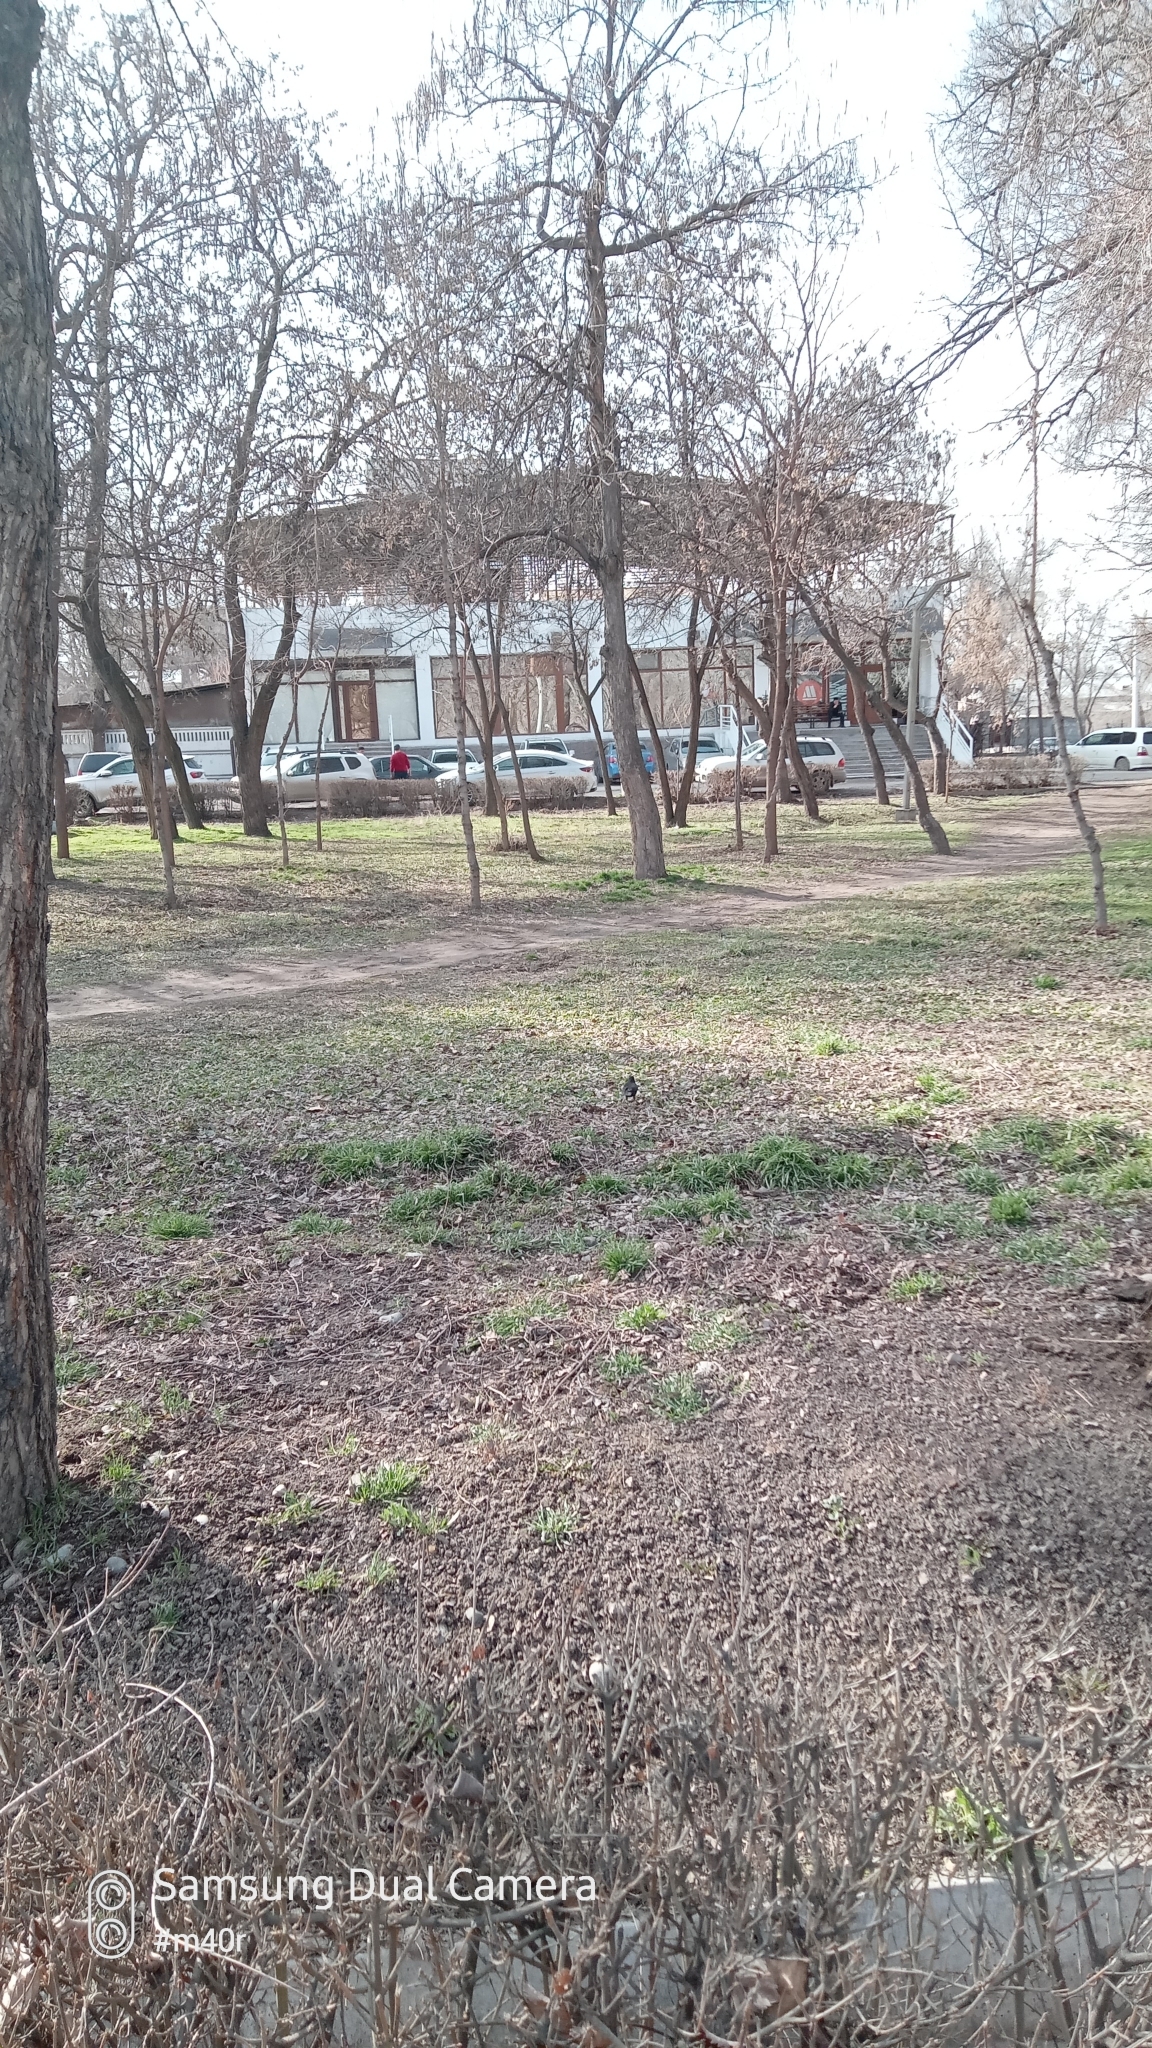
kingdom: Animalia
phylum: Chordata
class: Aves
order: Passeriformes
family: Turdidae
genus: Turdus
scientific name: Turdus merula
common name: Common blackbird
